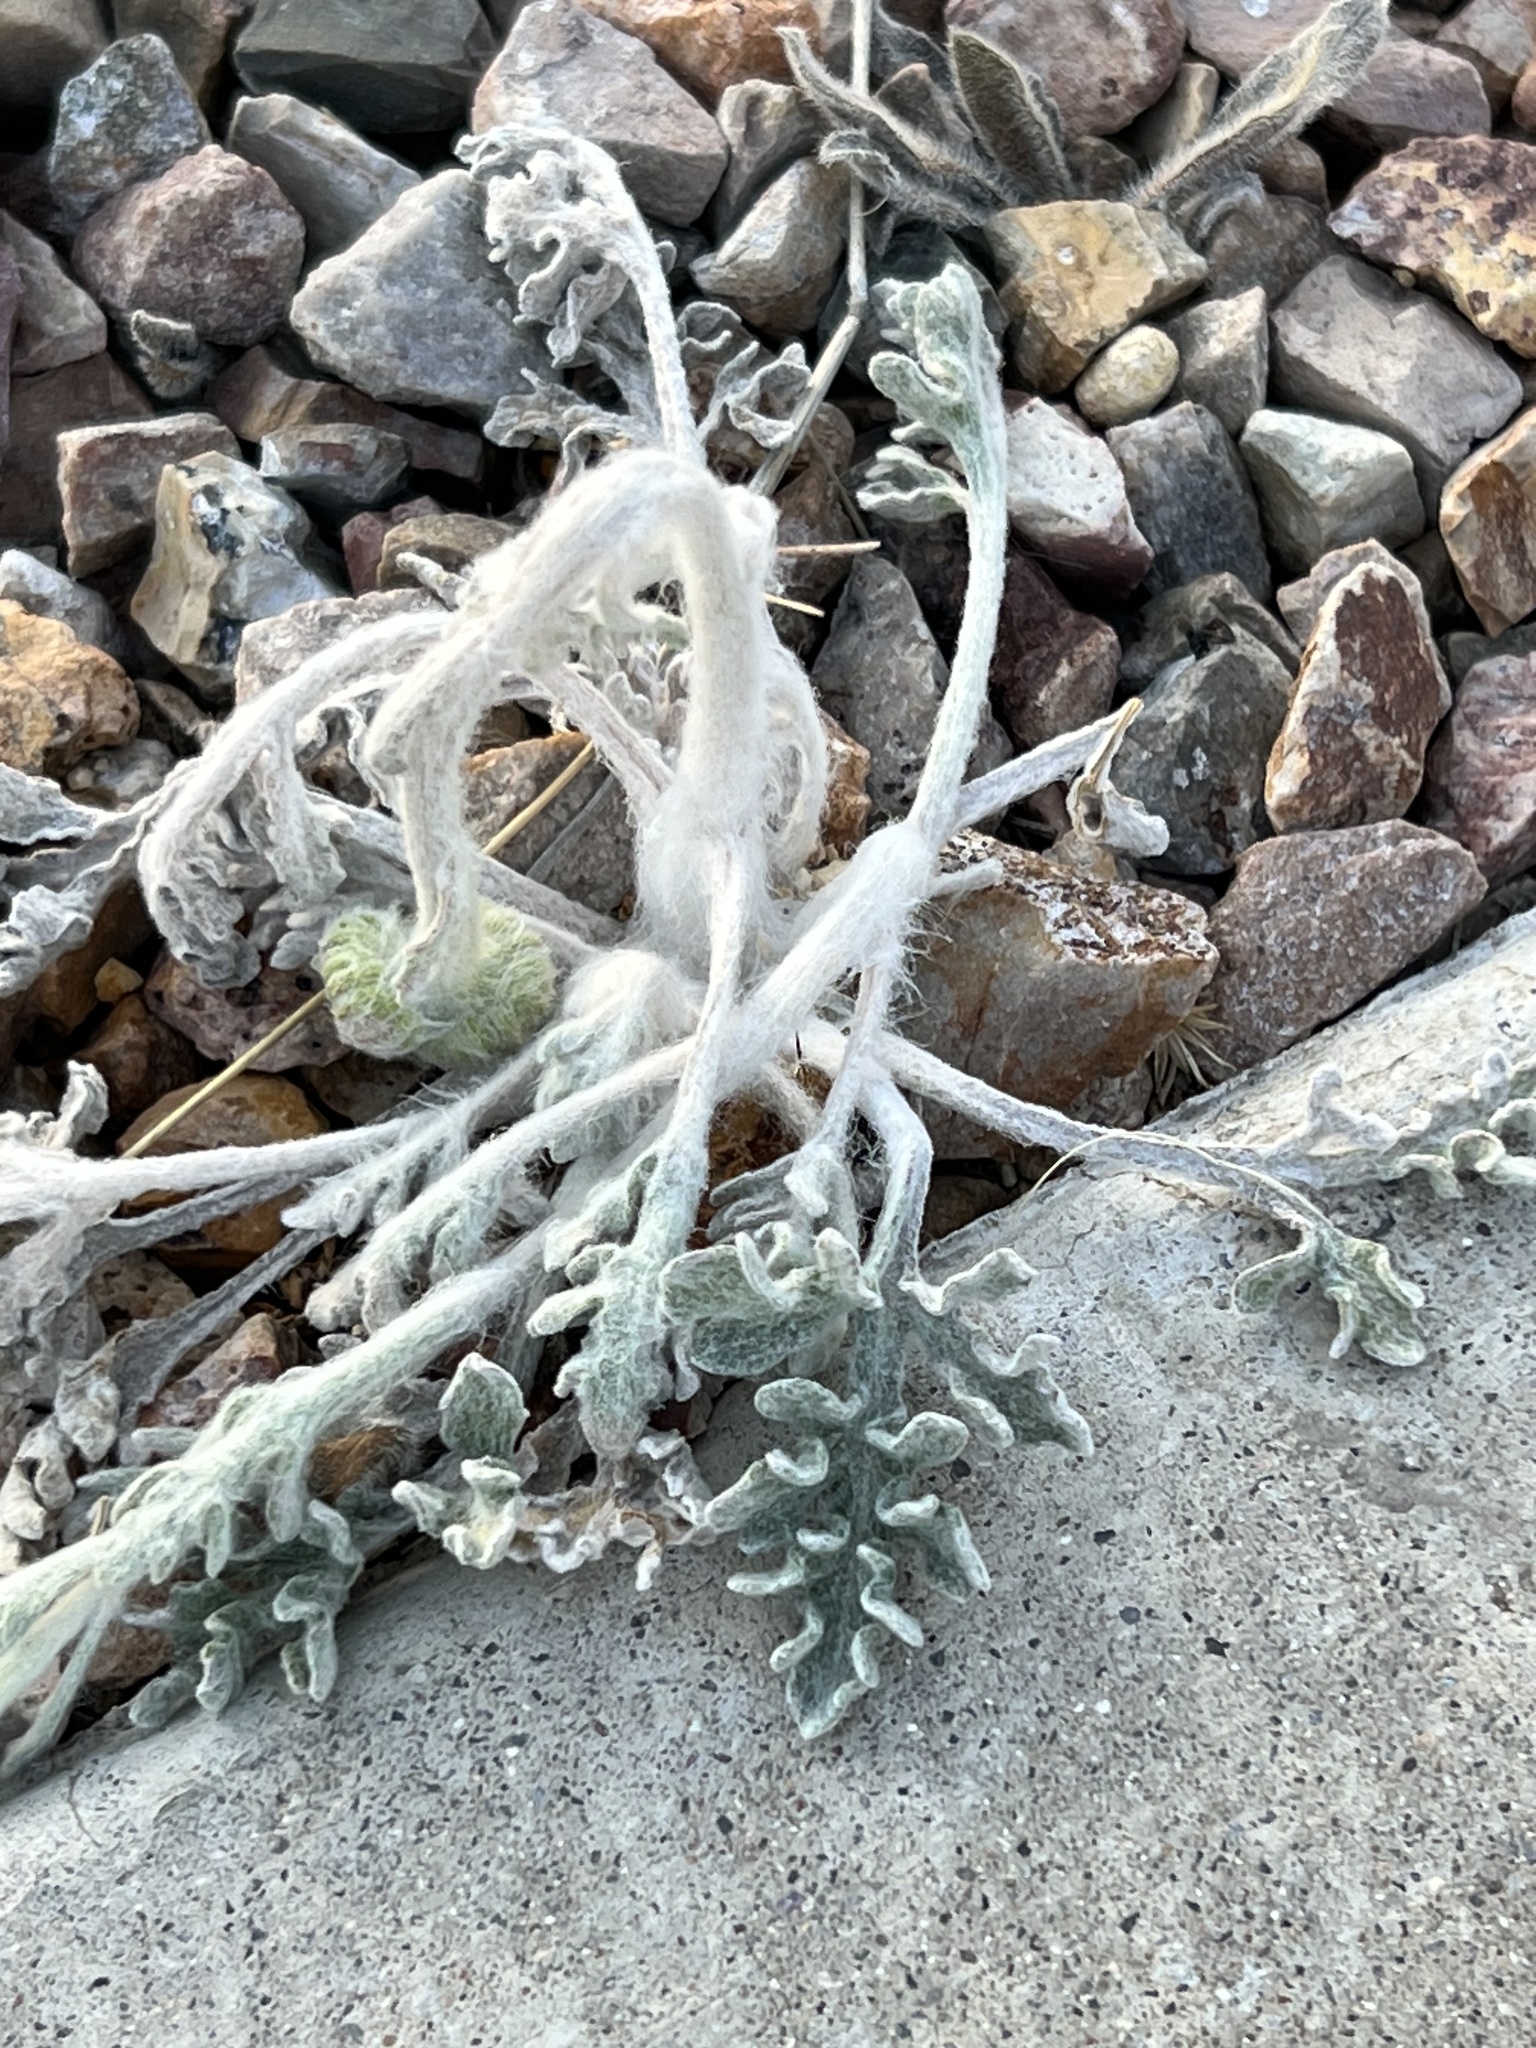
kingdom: Plantae
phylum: Tracheophyta
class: Magnoliopsida
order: Asterales
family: Asteraceae
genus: Baileya
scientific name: Baileya multiradiata
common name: Desert-marigold
